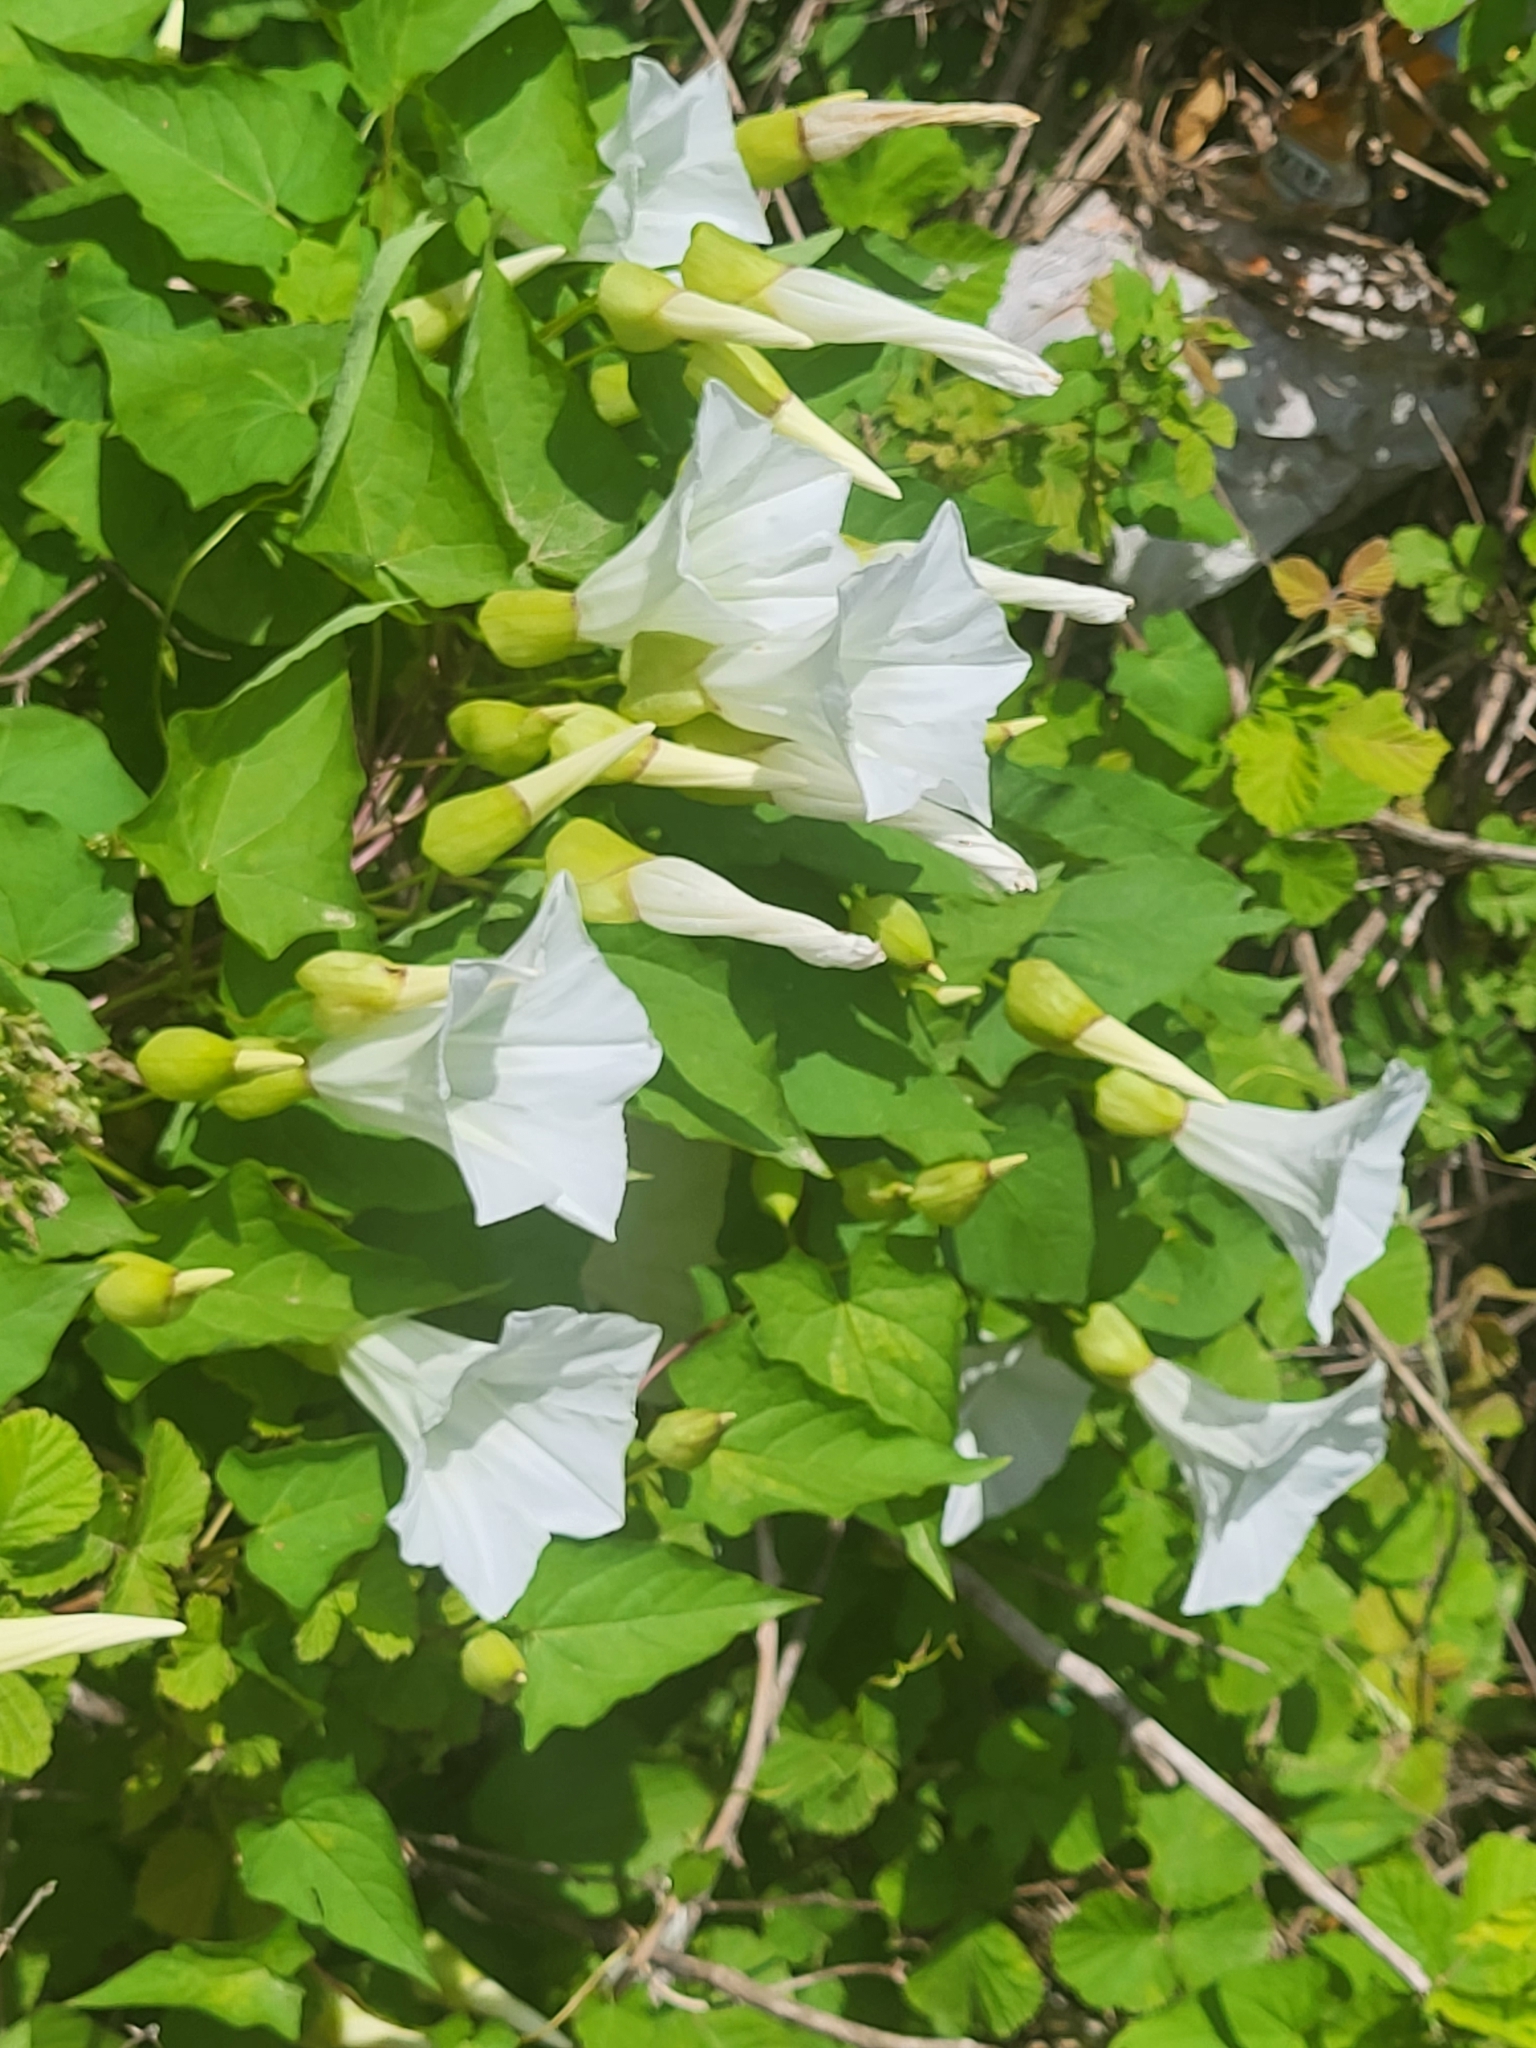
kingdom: Plantae
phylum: Tracheophyta
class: Magnoliopsida
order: Solanales
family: Convolvulaceae
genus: Calystegia
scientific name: Calystegia silvatica
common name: Large bindweed
